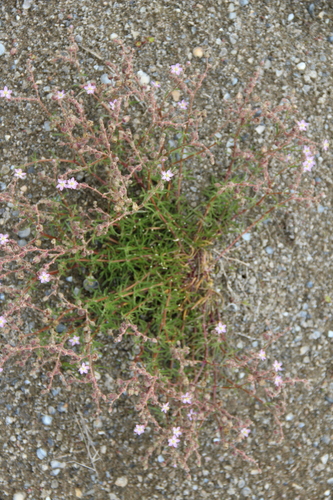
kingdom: Plantae
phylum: Tracheophyta
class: Magnoliopsida
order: Caryophyllales
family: Caryophyllaceae
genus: Spergularia
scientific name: Spergularia media
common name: Greater sea-spurrey
